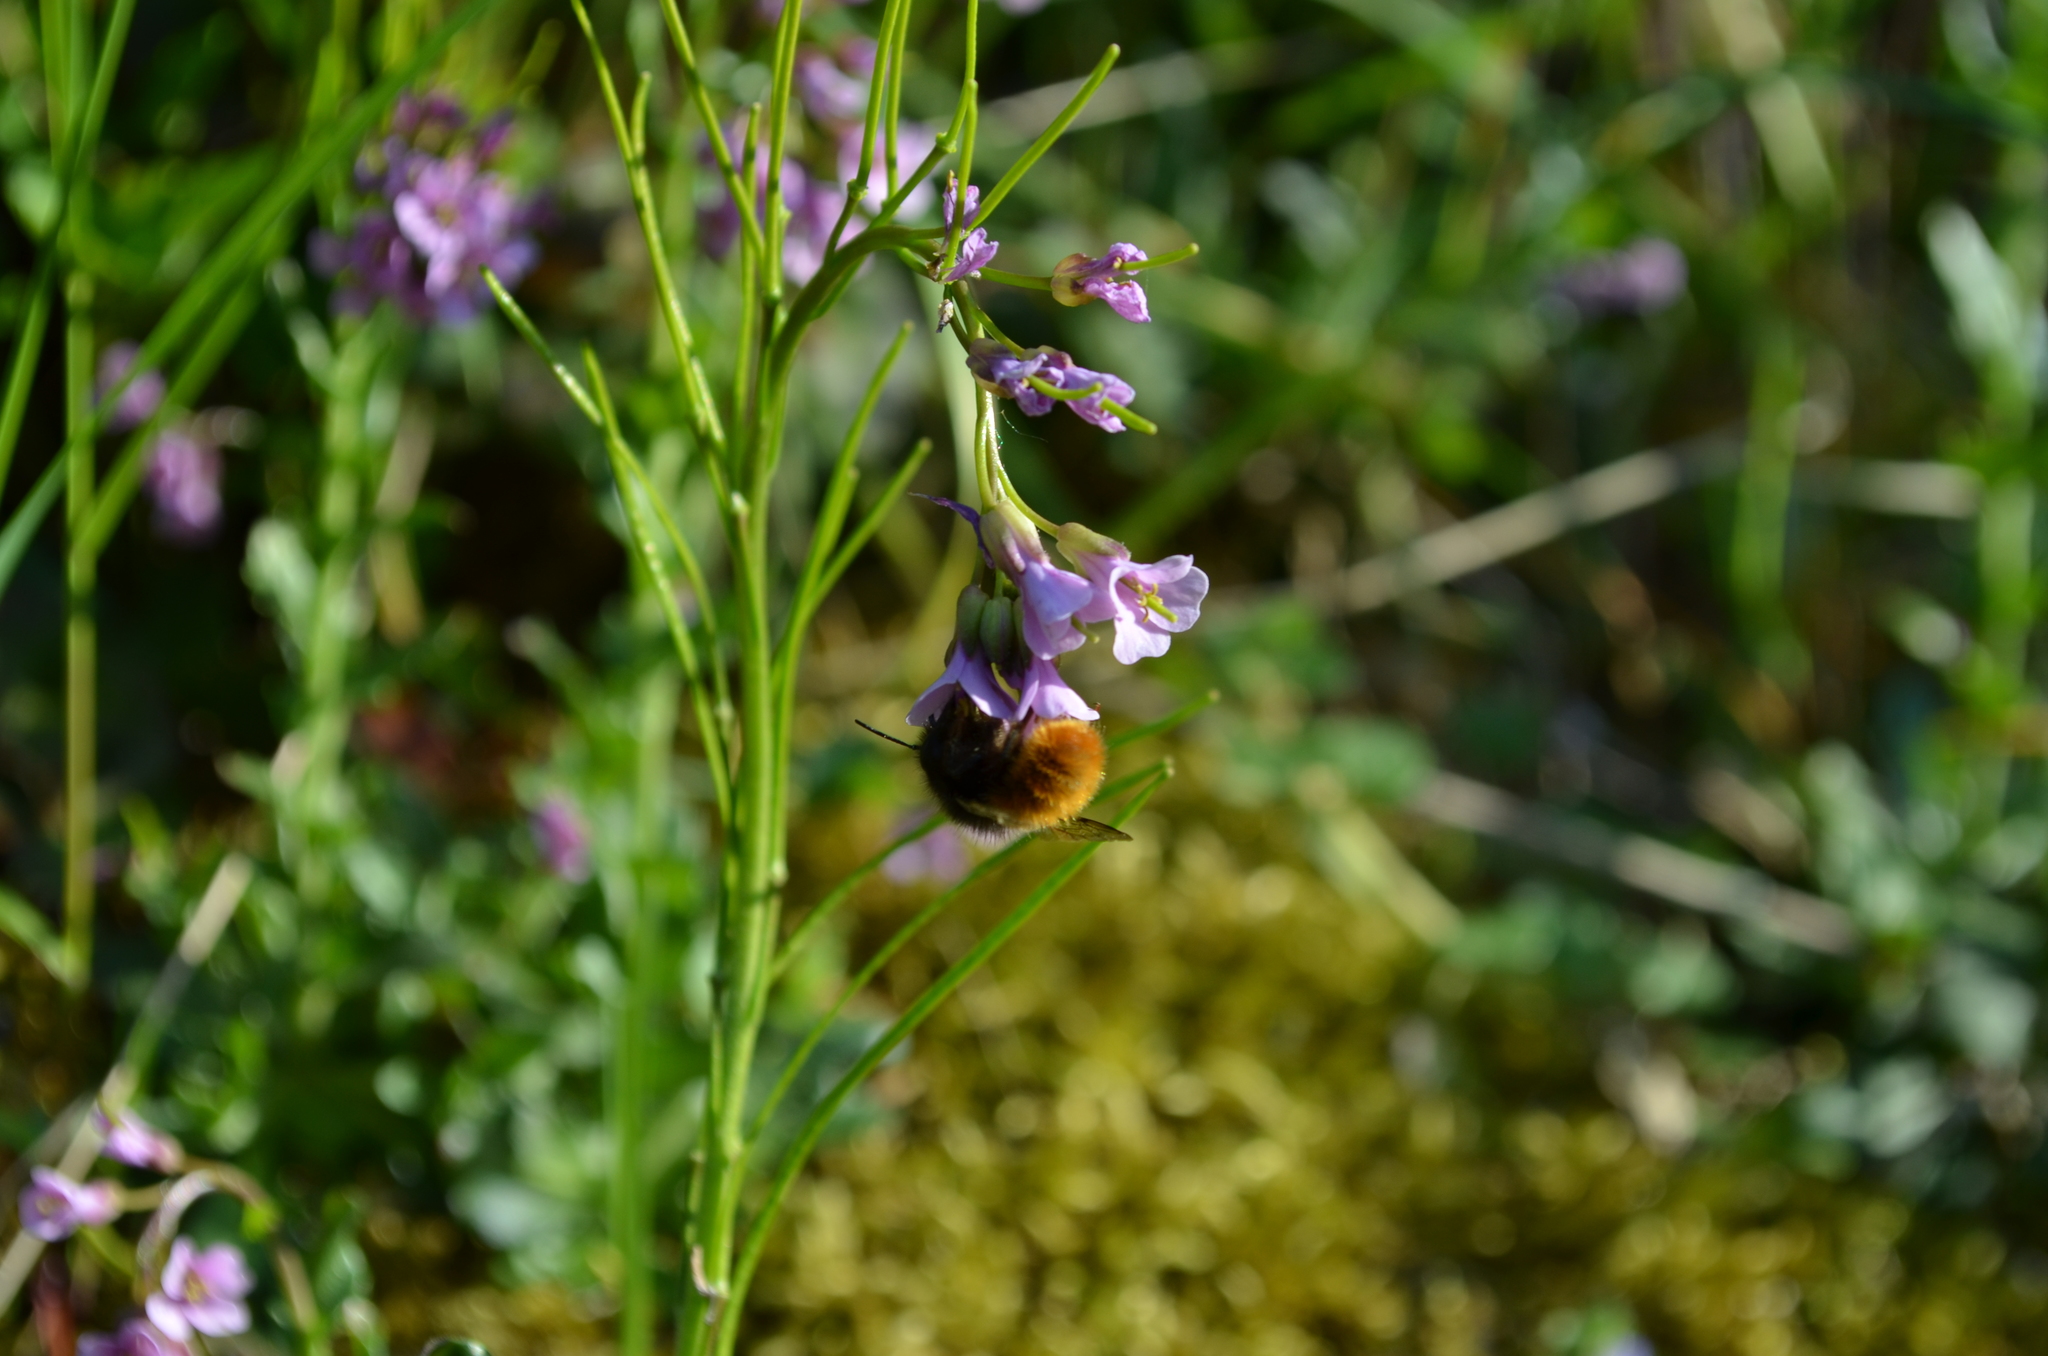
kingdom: Animalia
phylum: Arthropoda
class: Insecta
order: Hymenoptera
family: Megachilidae
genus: Osmia
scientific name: Osmia cornuta
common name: Mason bee
